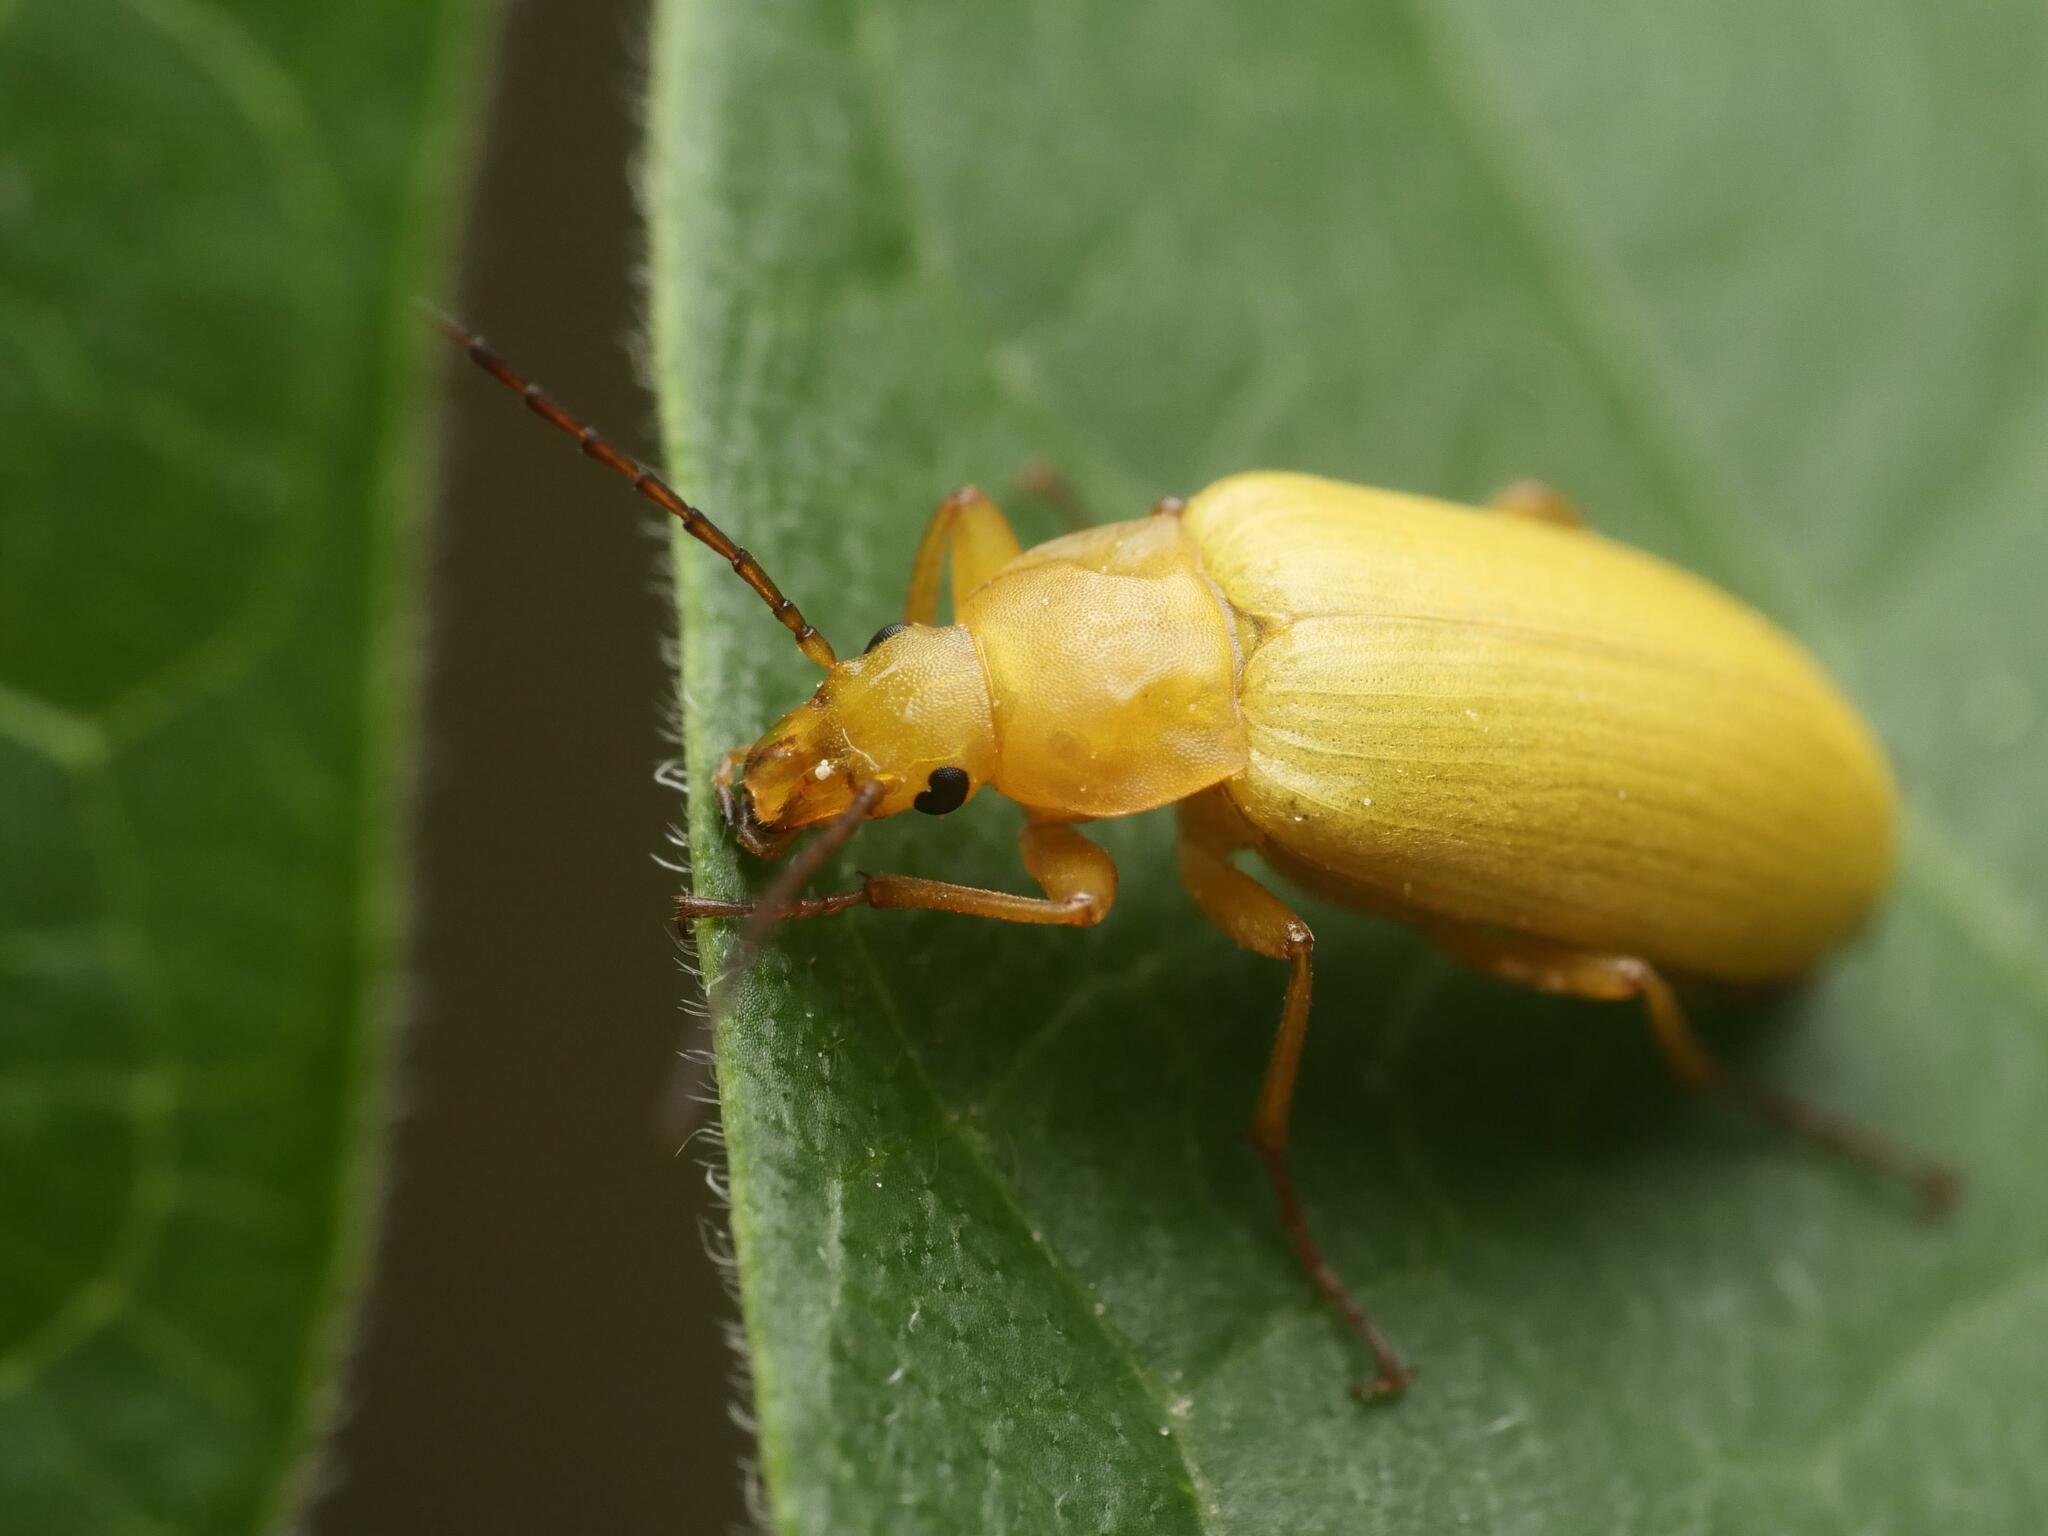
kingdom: Animalia
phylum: Arthropoda
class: Insecta
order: Coleoptera
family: Tenebrionidae
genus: Cteniopus
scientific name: Cteniopus sulphureus
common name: Sulphur beetle
